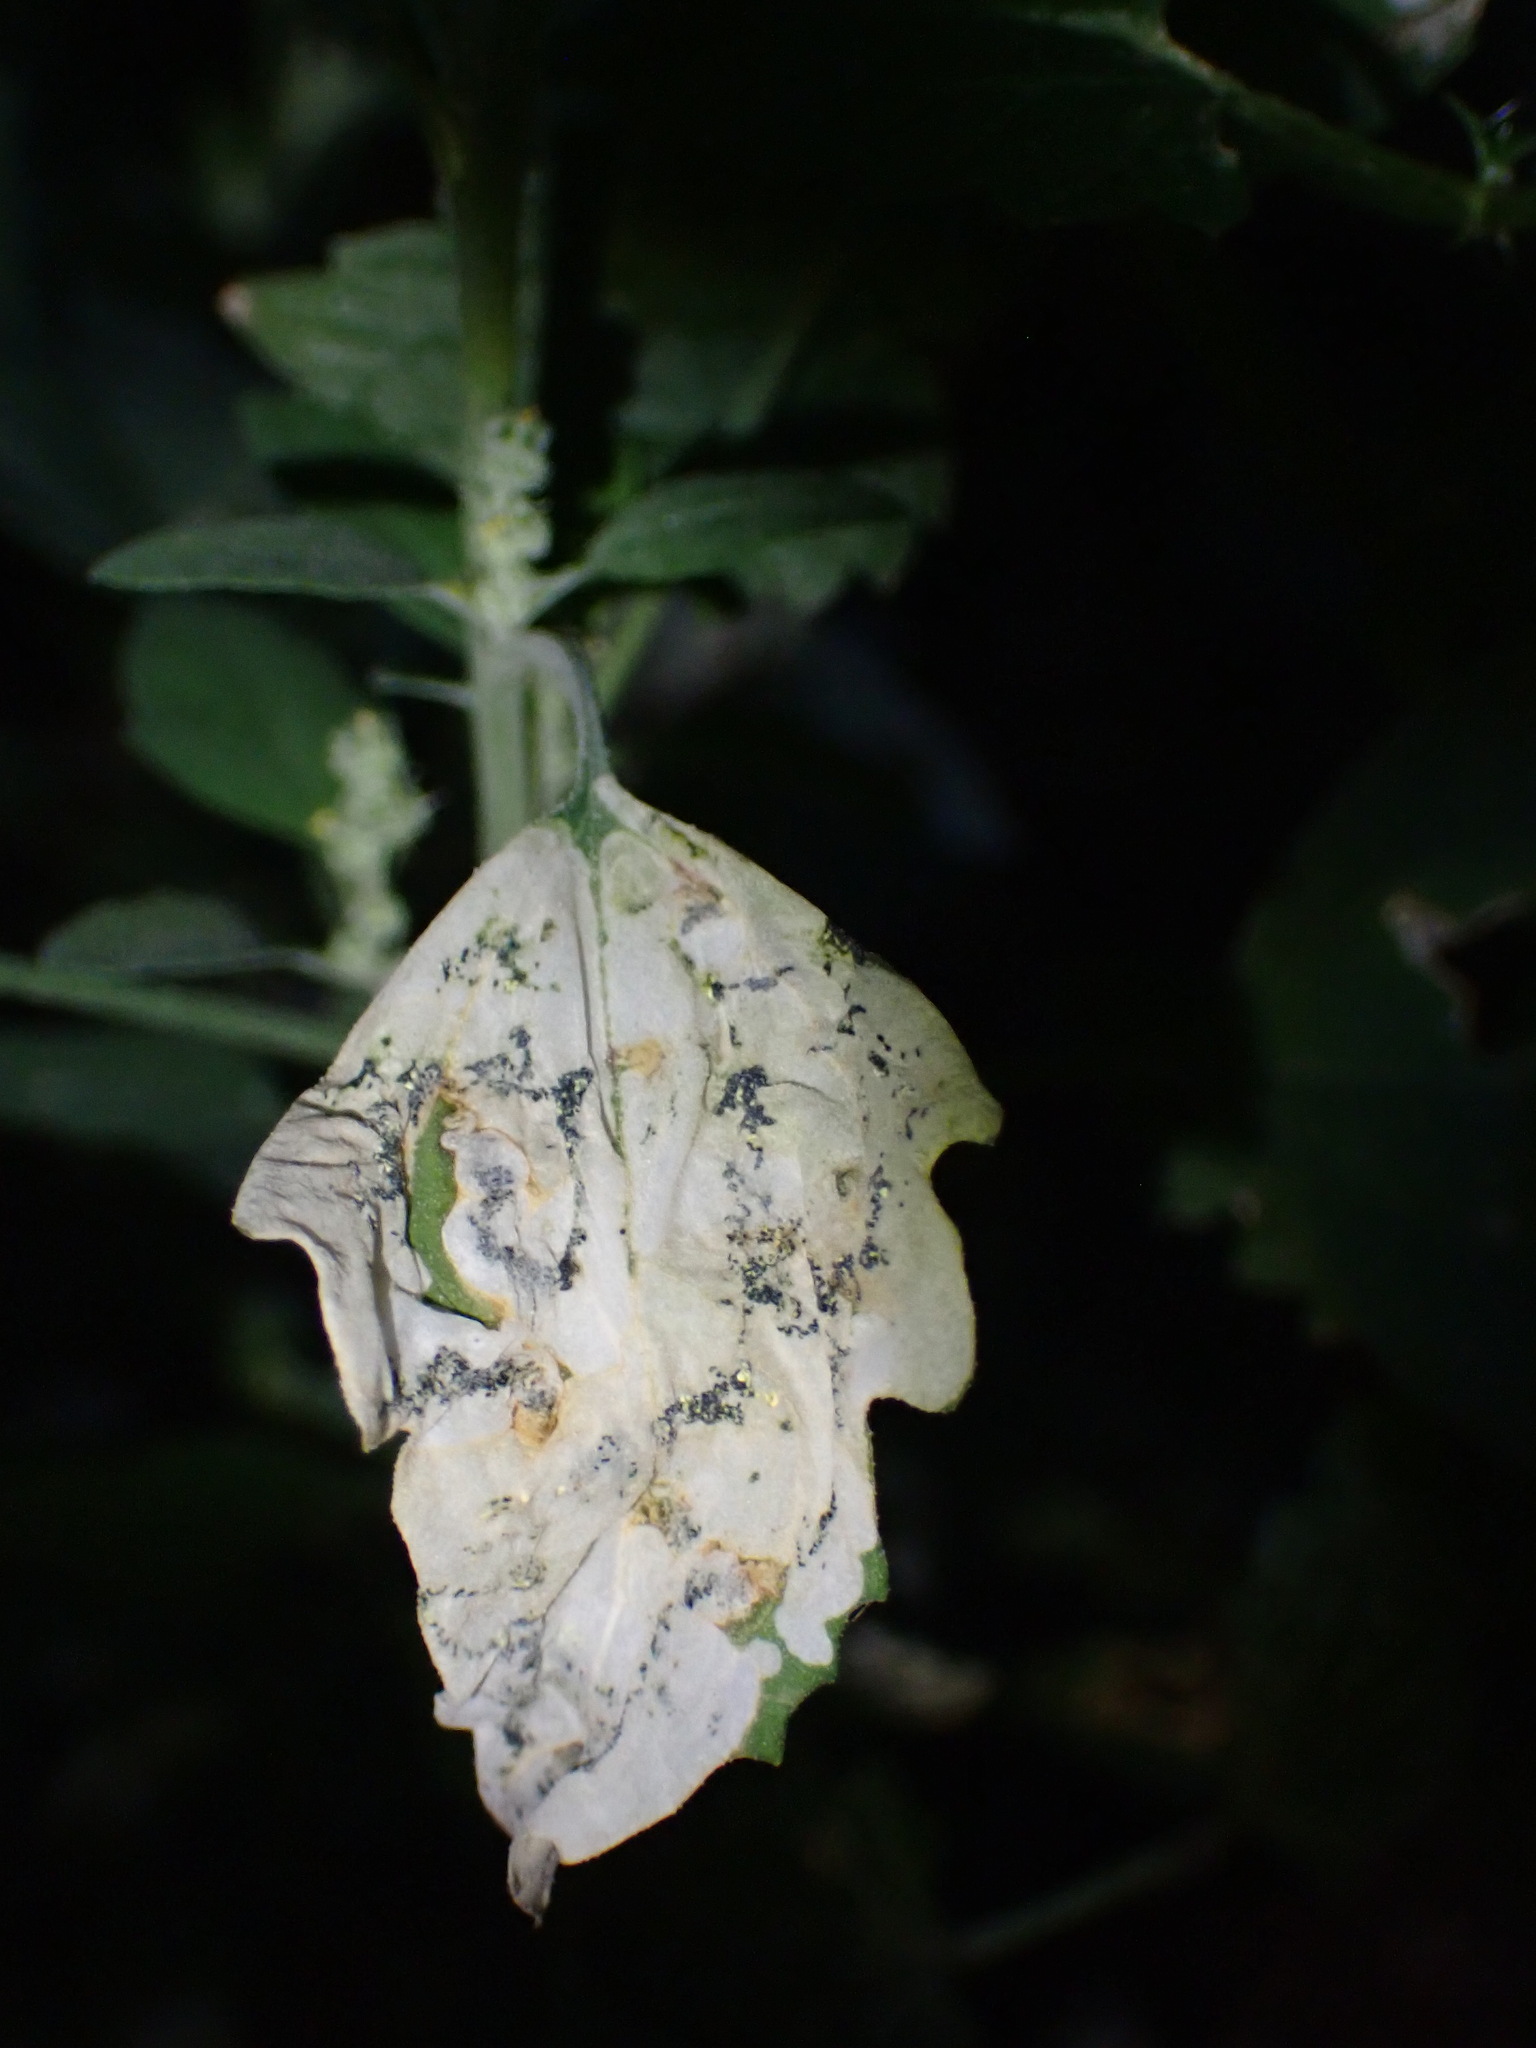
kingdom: Animalia
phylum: Arthropoda
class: Insecta
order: Lepidoptera
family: Gelechiidae
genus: Chrysoesthia
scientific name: Chrysoesthia sexguttella
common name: Moth
